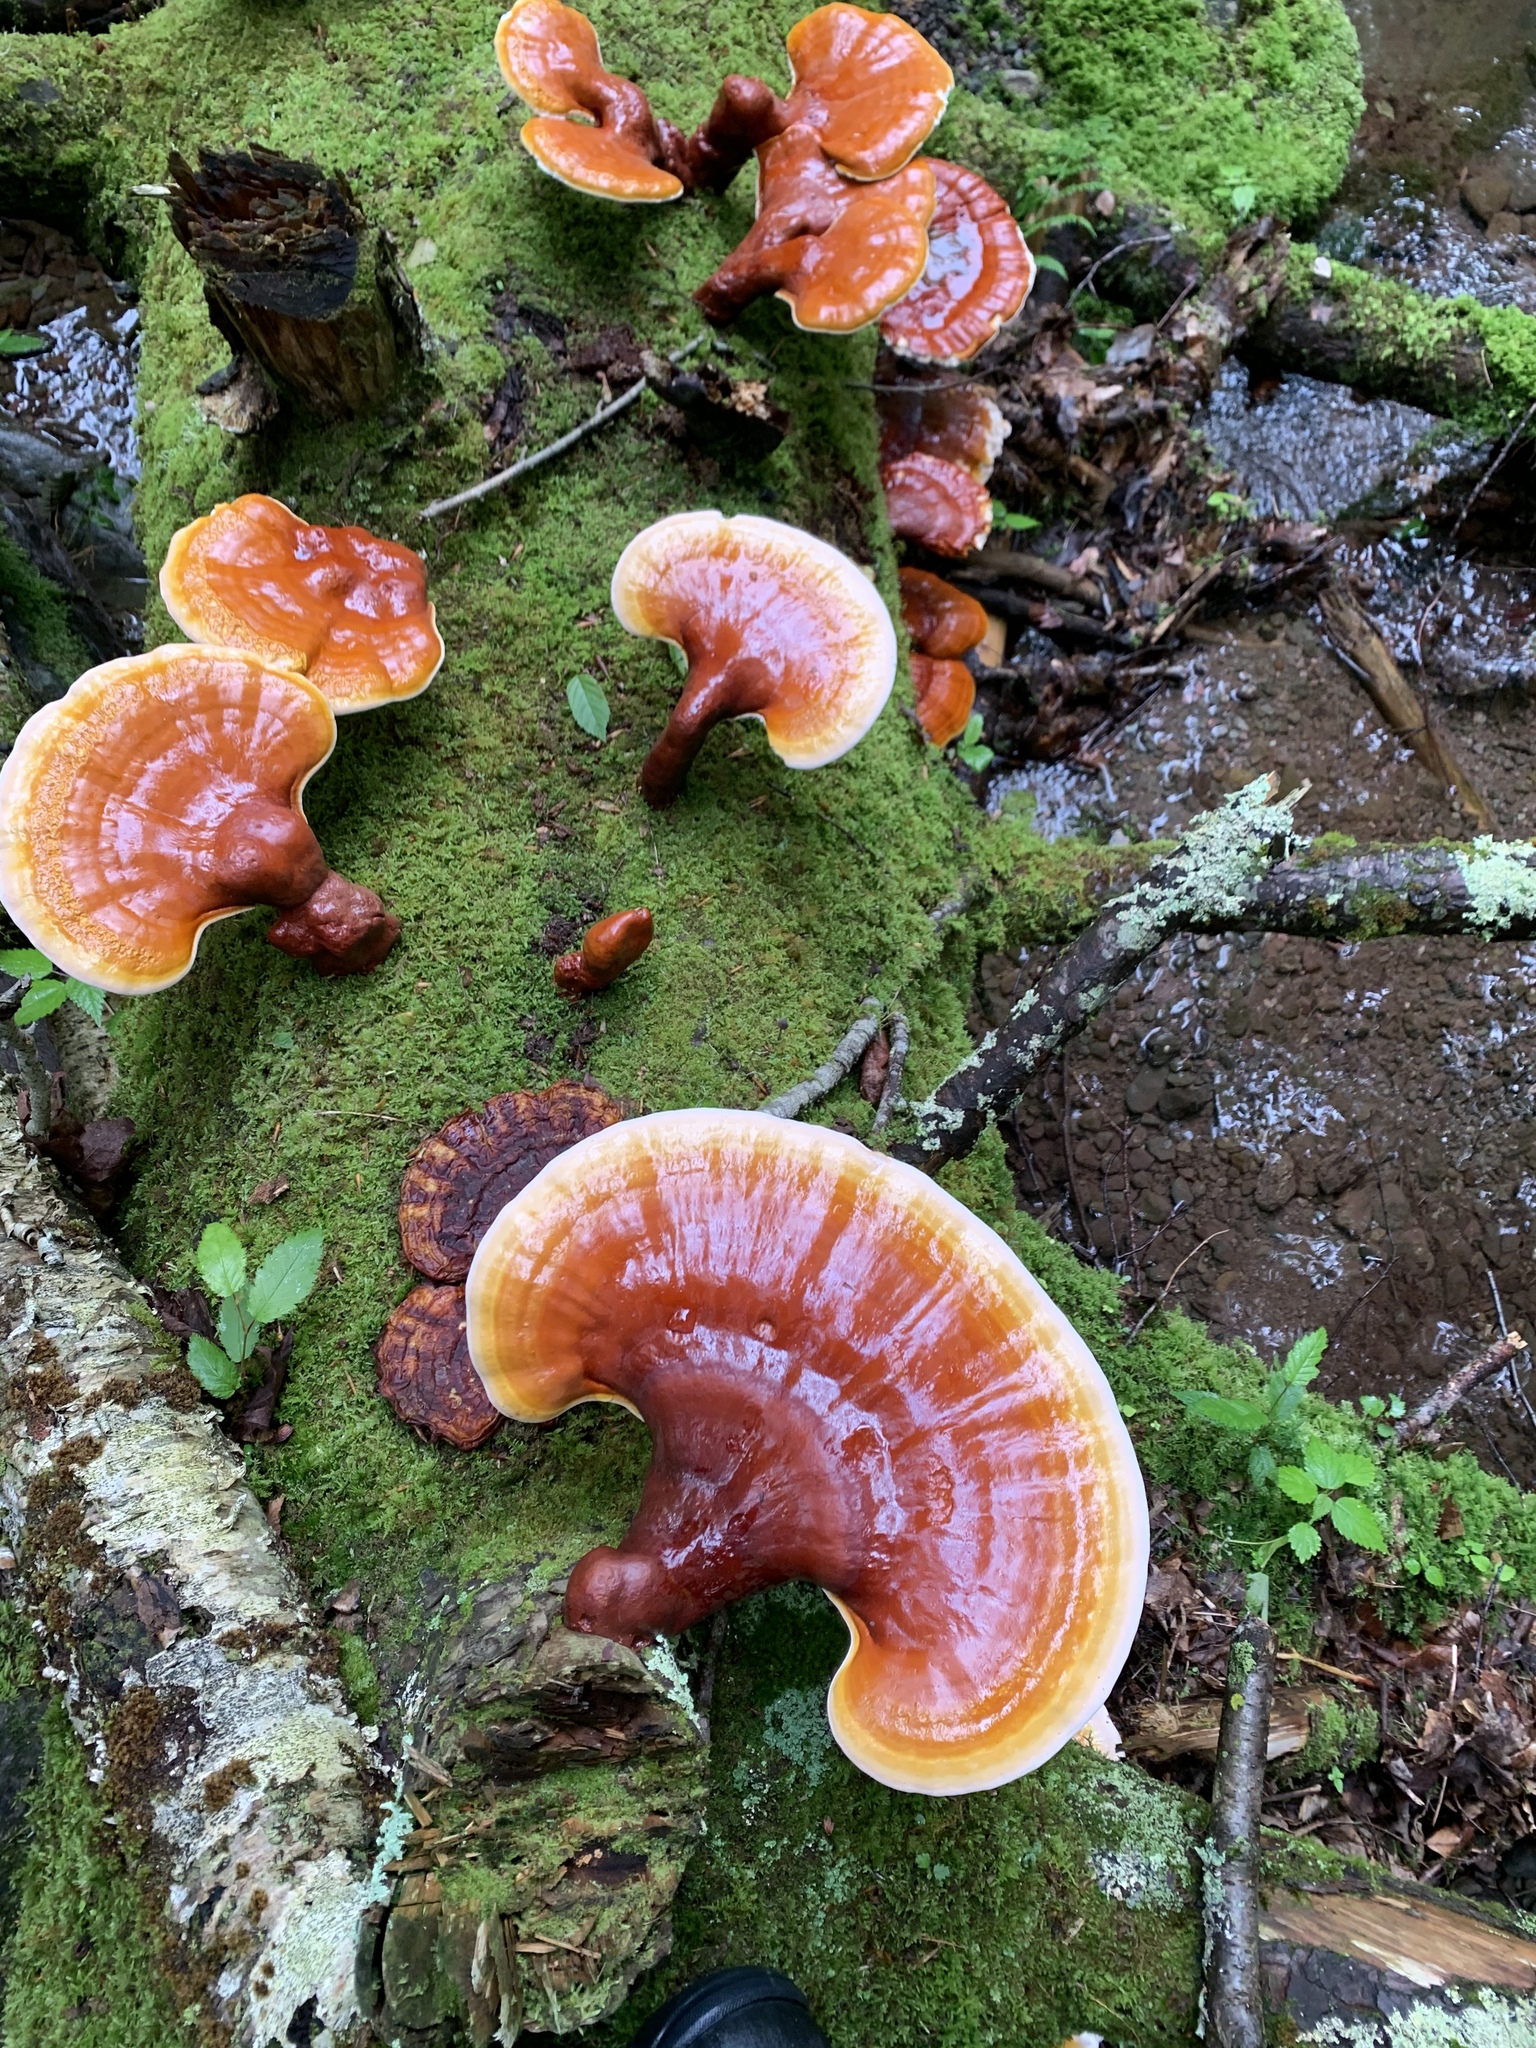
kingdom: Fungi
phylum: Basidiomycota
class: Agaricomycetes
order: Polyporales
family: Polyporaceae
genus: Ganoderma
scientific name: Ganoderma tsugae
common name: Hemlock varnish shelf
